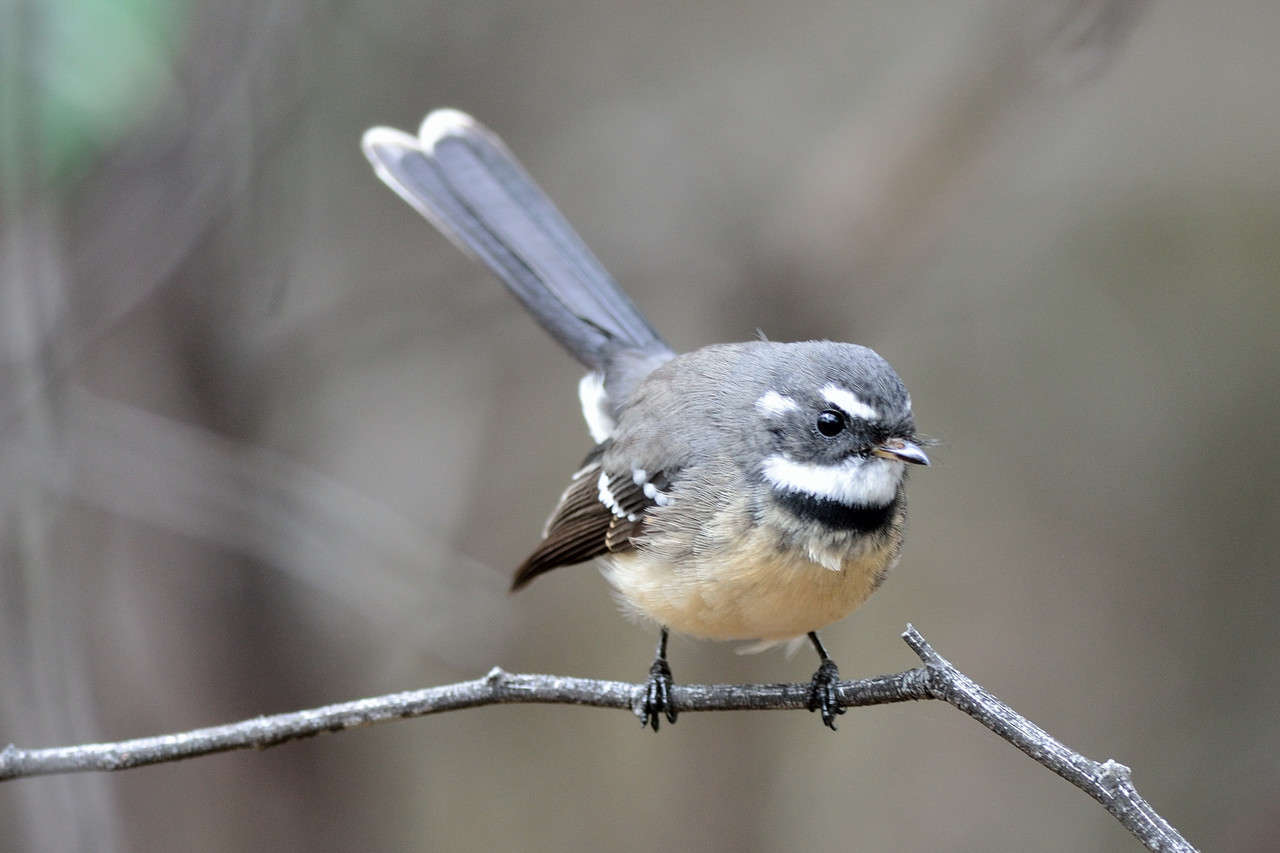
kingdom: Animalia
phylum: Chordata
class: Aves
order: Passeriformes
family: Rhipiduridae
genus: Rhipidura
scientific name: Rhipidura albiscapa
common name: Grey fantail
